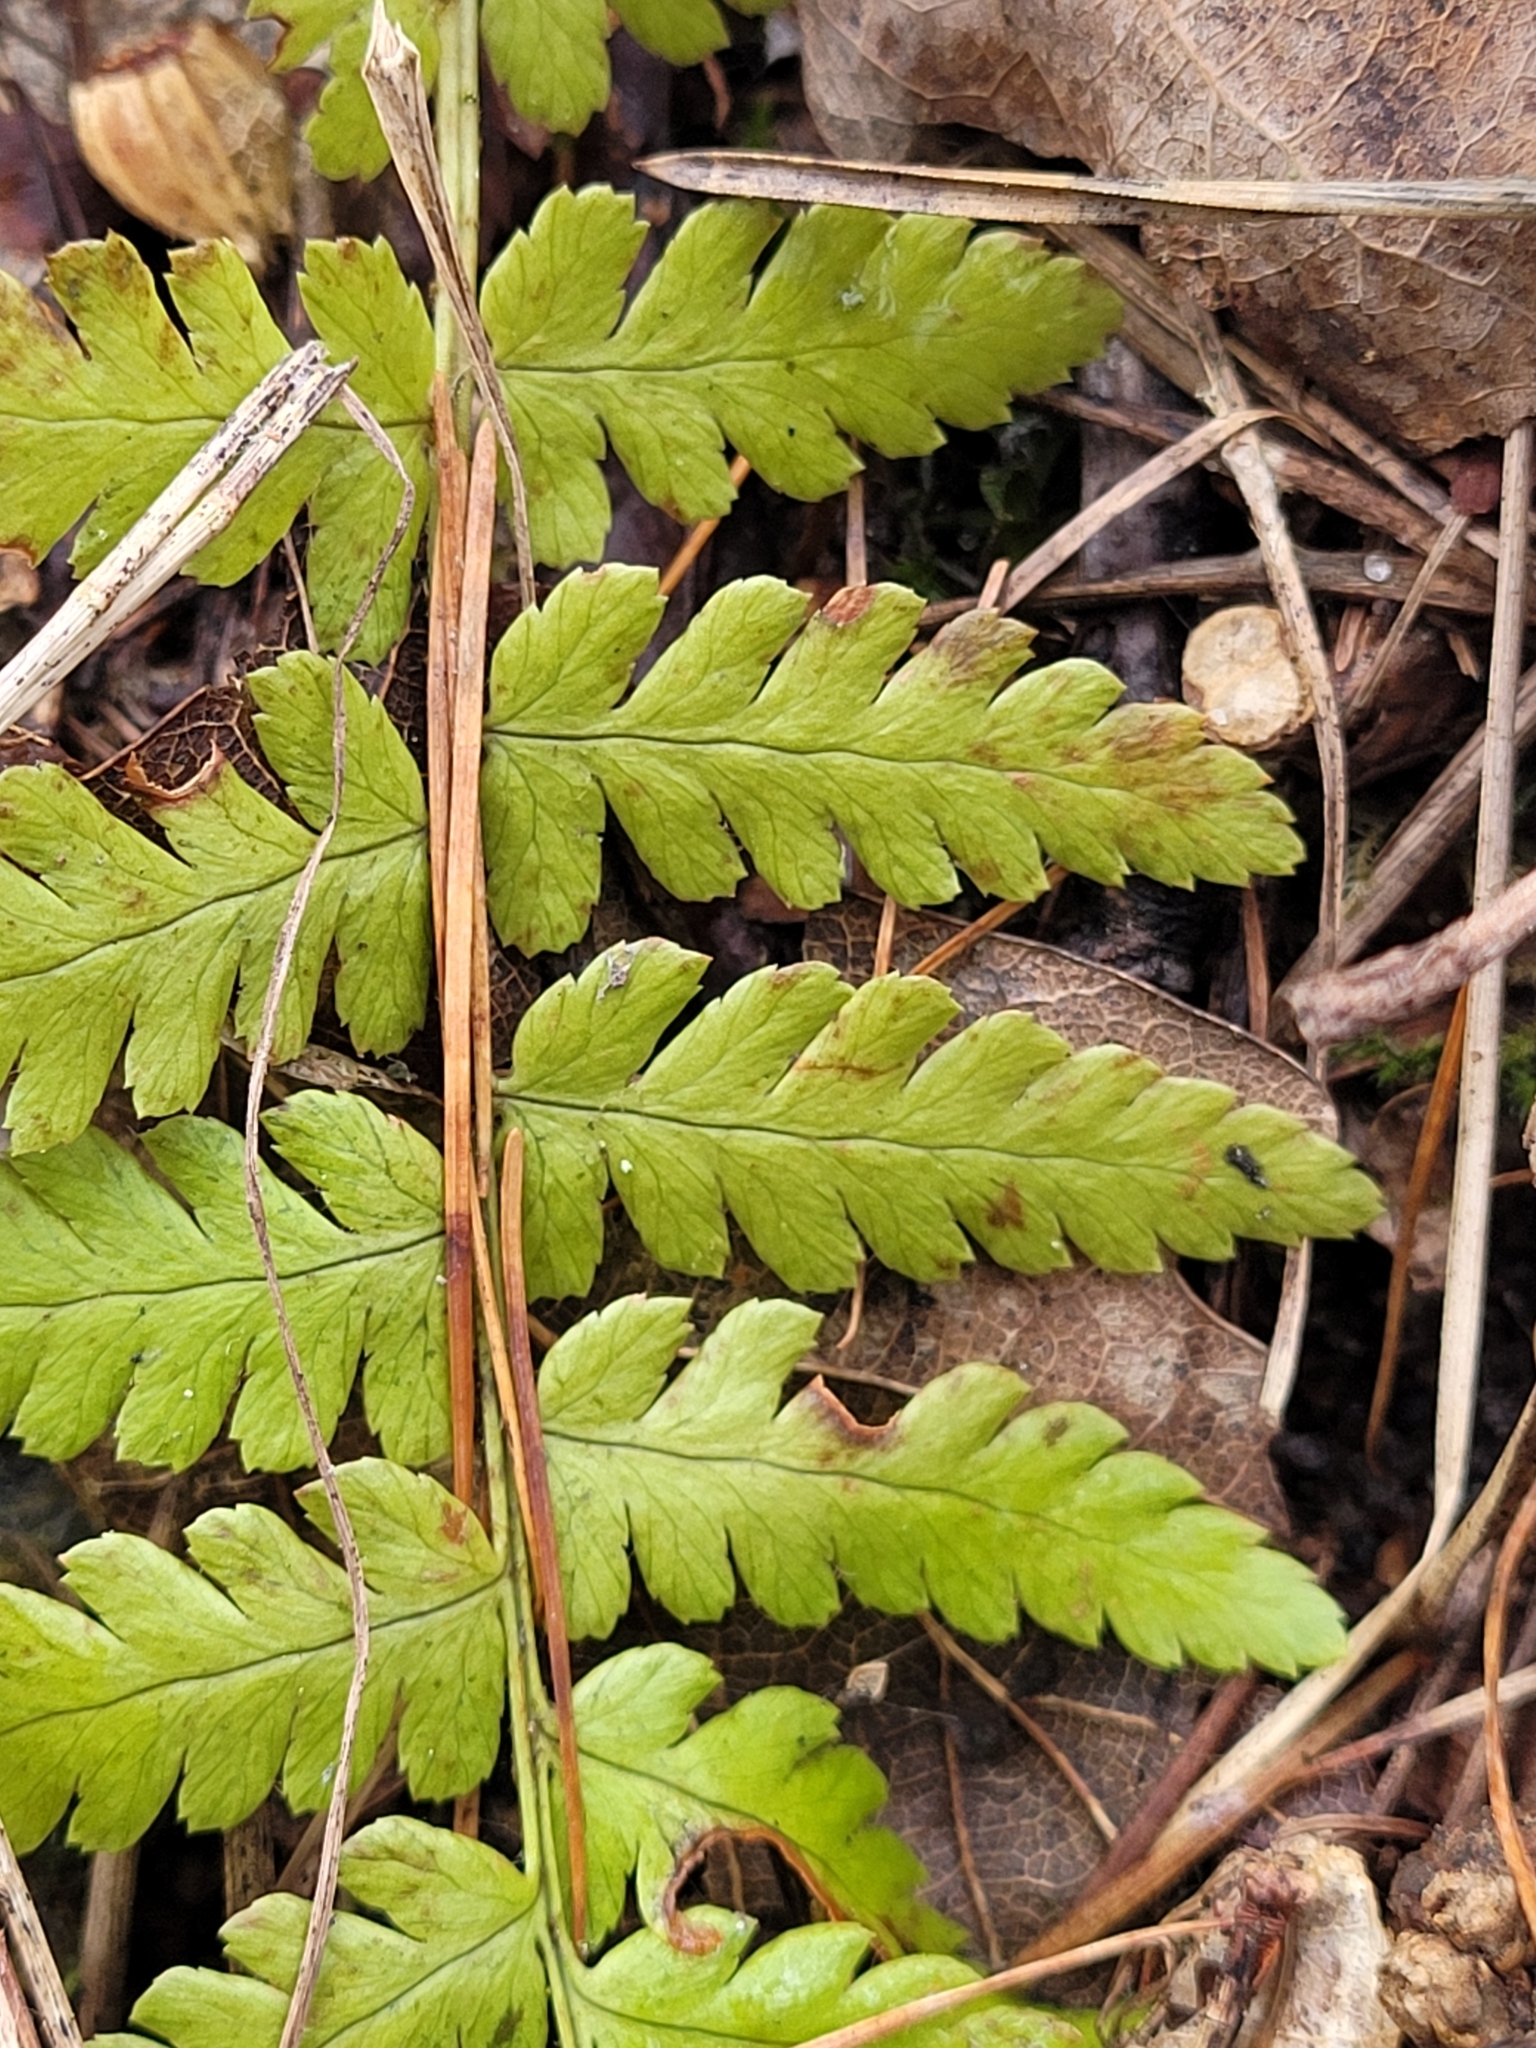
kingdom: Plantae
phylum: Tracheophyta
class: Polypodiopsida
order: Polypodiales
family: Dryopteridaceae
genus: Dryopteris
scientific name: Dryopteris filix-mas
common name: Male fern
